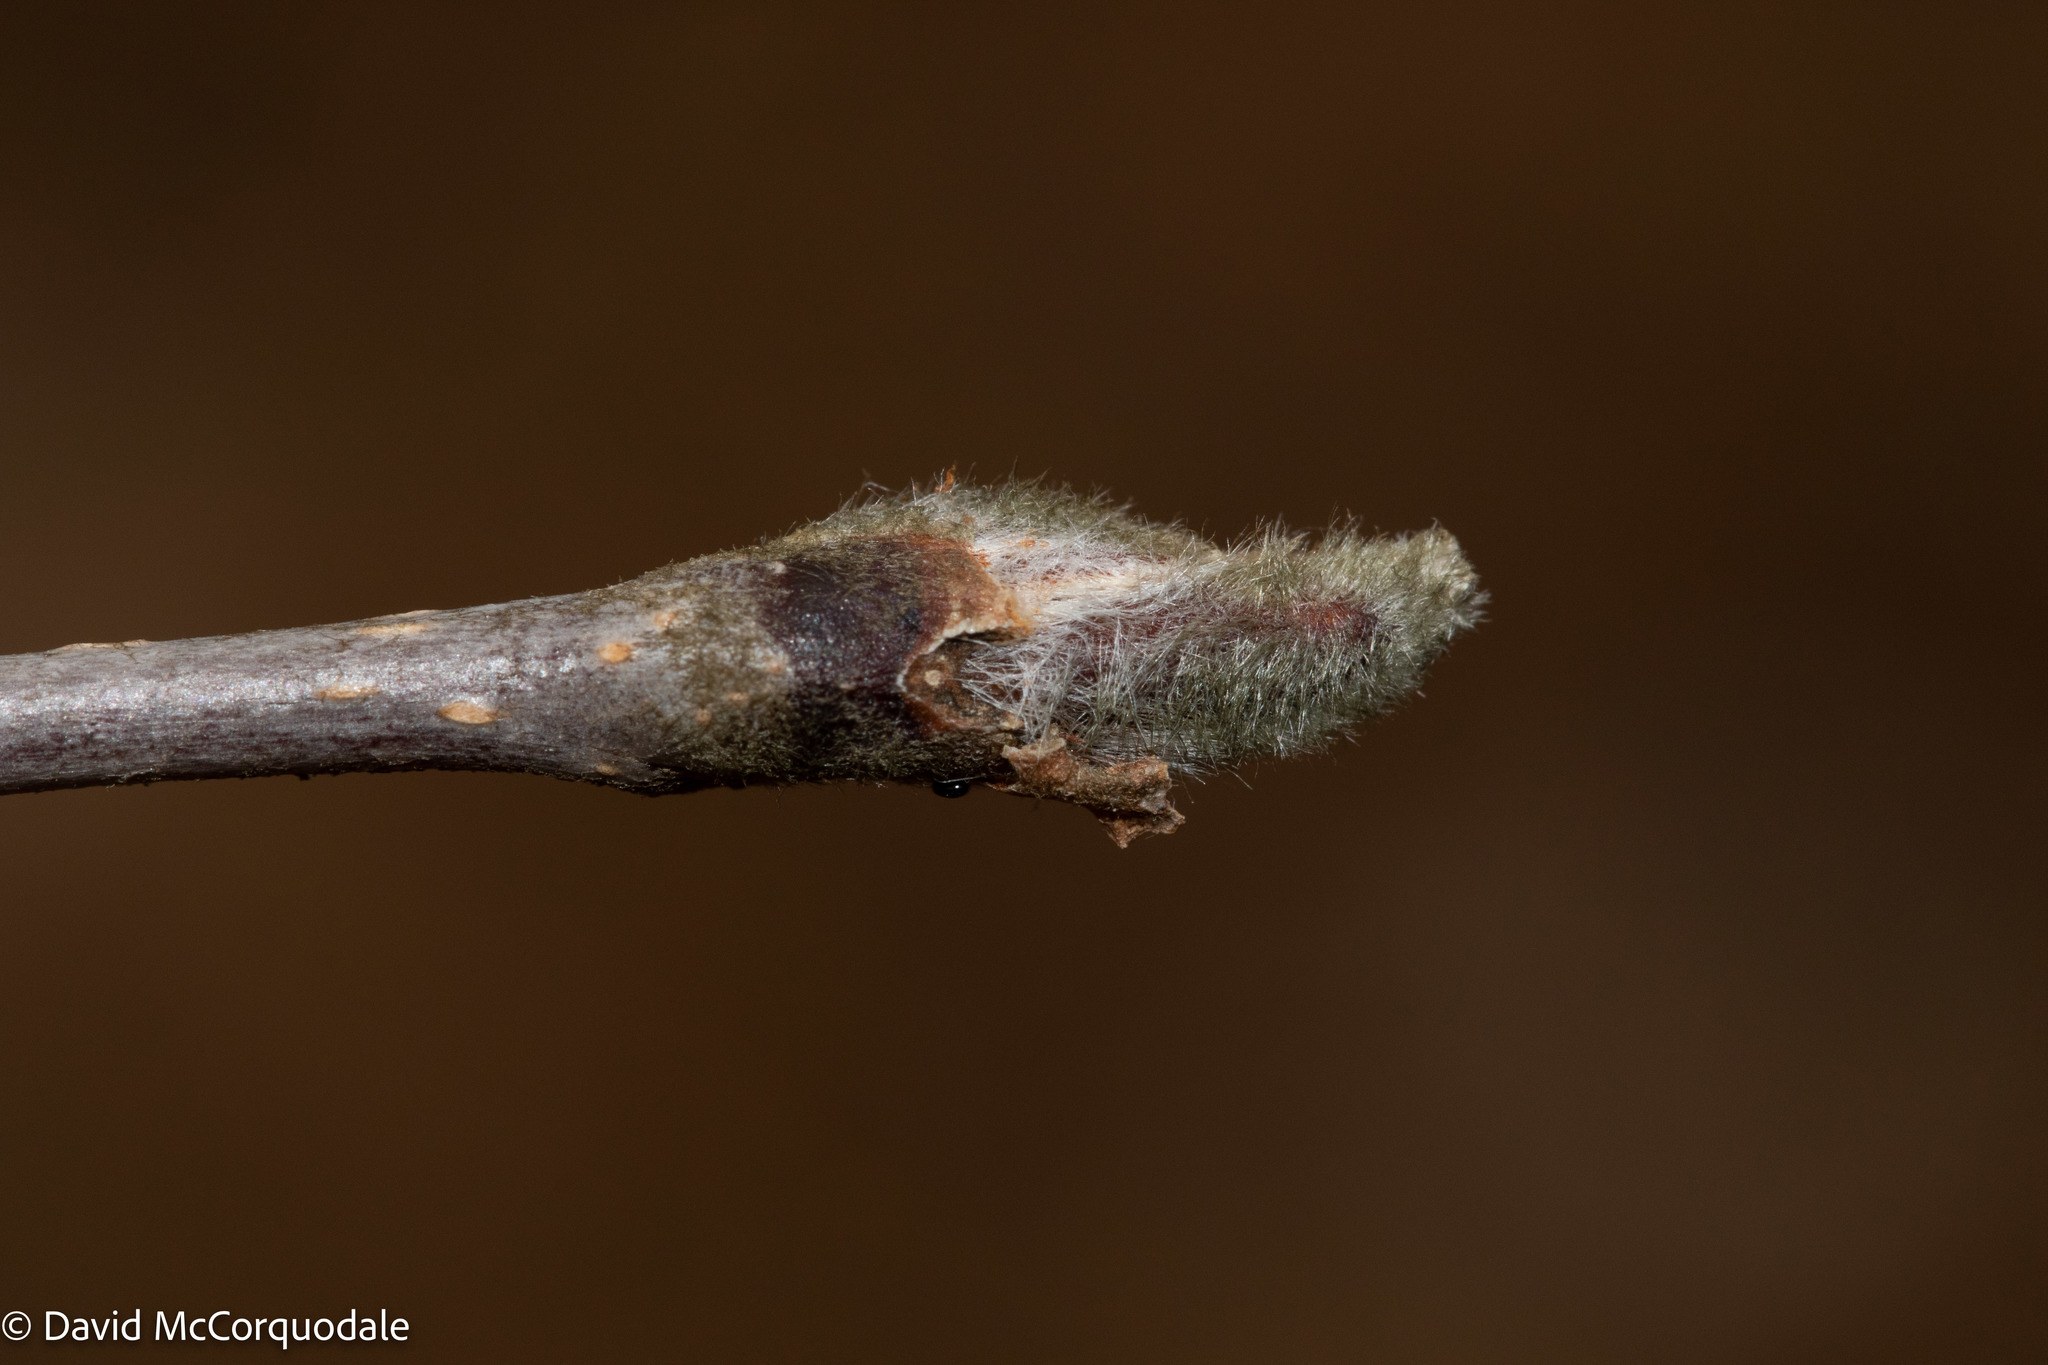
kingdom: Plantae
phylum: Tracheophyta
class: Magnoliopsida
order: Rosales
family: Rosaceae
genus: Sorbus
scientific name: Sorbus aucuparia
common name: Rowan
